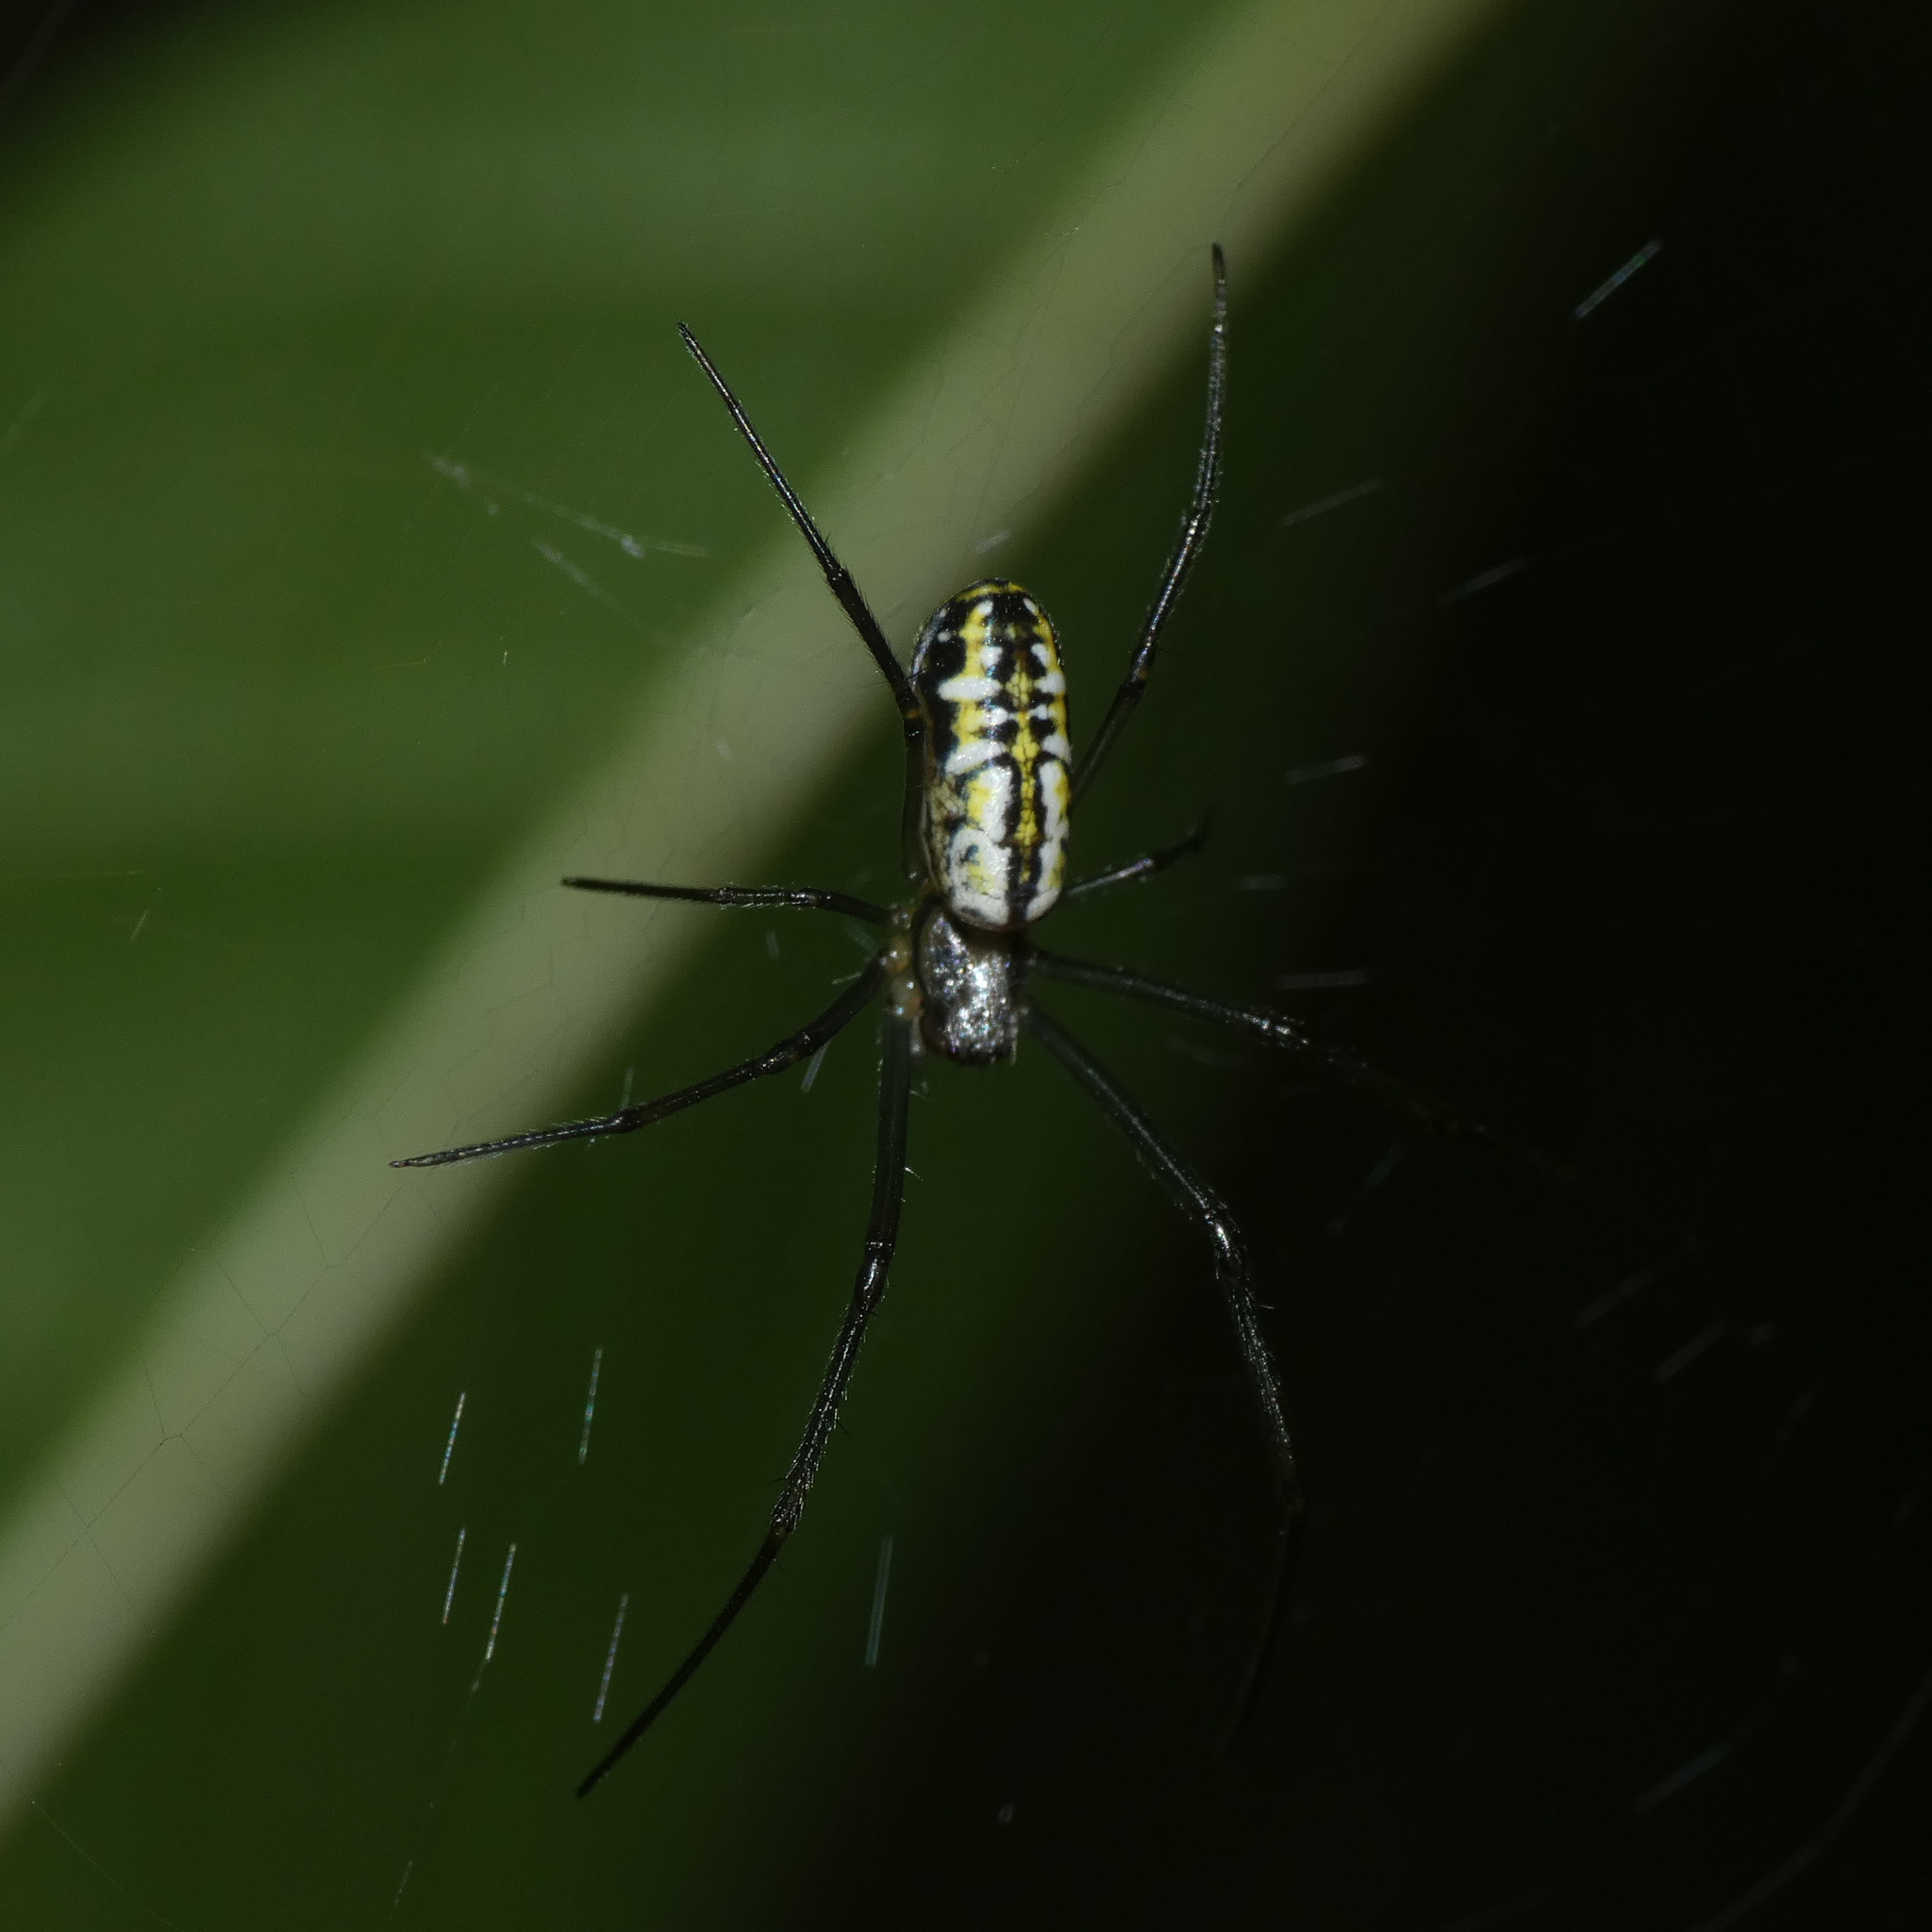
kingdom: Animalia
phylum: Arthropoda
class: Arachnida
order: Araneae
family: Araneidae
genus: Trichonephila
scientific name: Trichonephila fenestrata
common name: Hairy golden orb weaver
